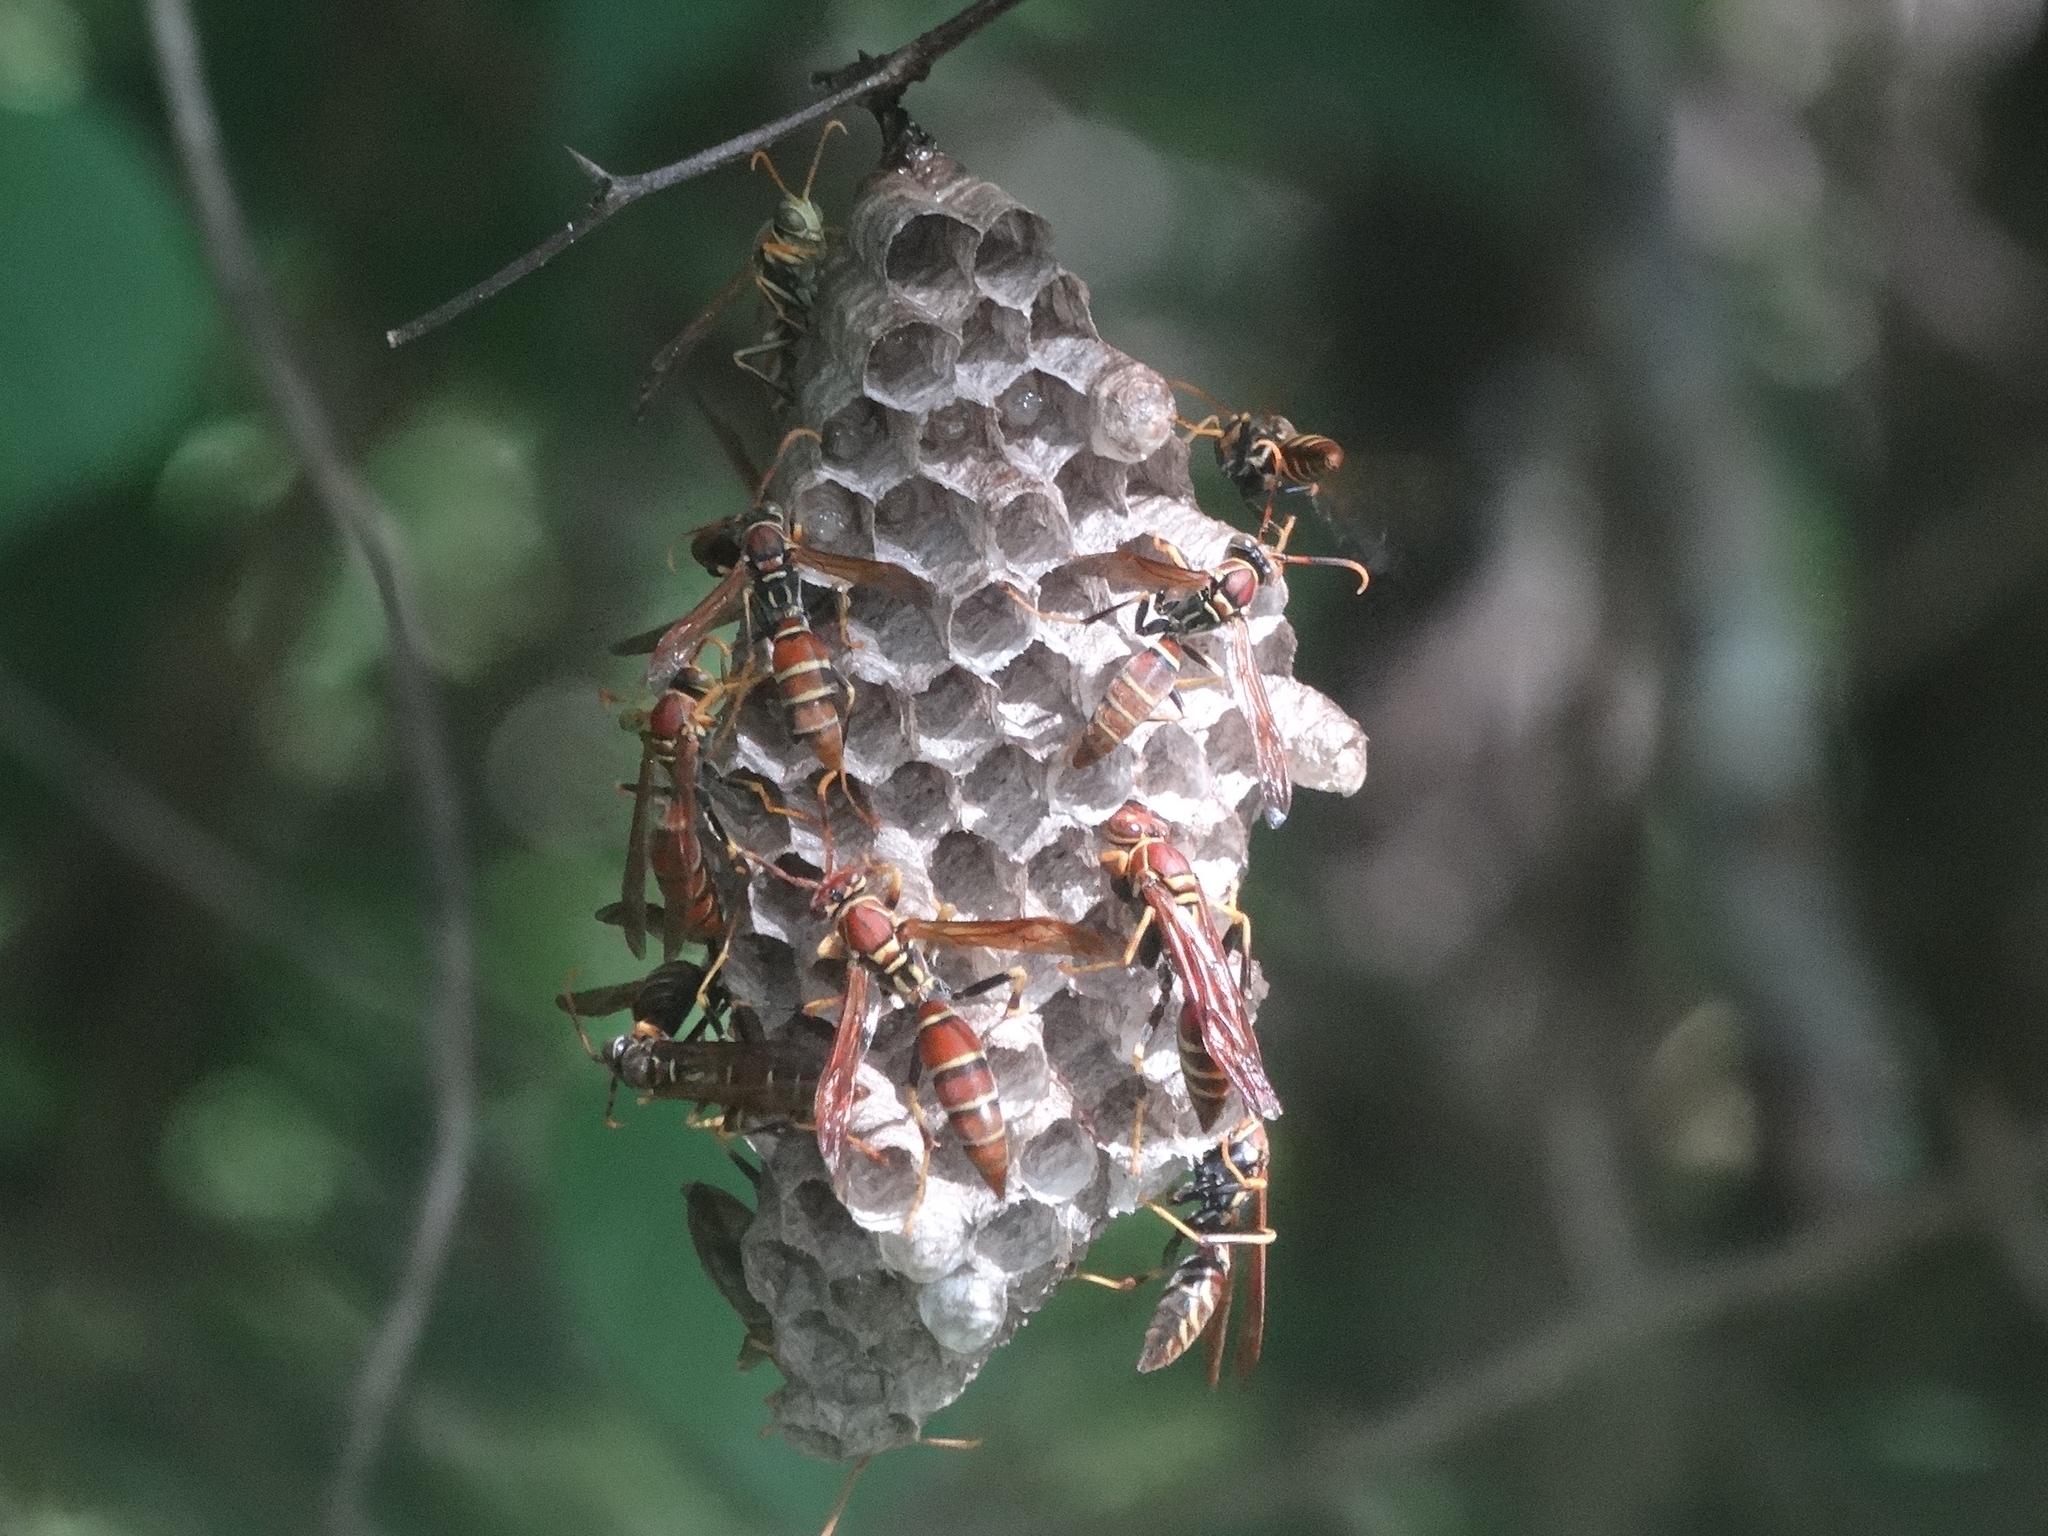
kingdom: Animalia
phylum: Arthropoda
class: Insecta
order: Hymenoptera
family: Eumenidae
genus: Polistes
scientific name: Polistes instabilis
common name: Unstable paper wasp
